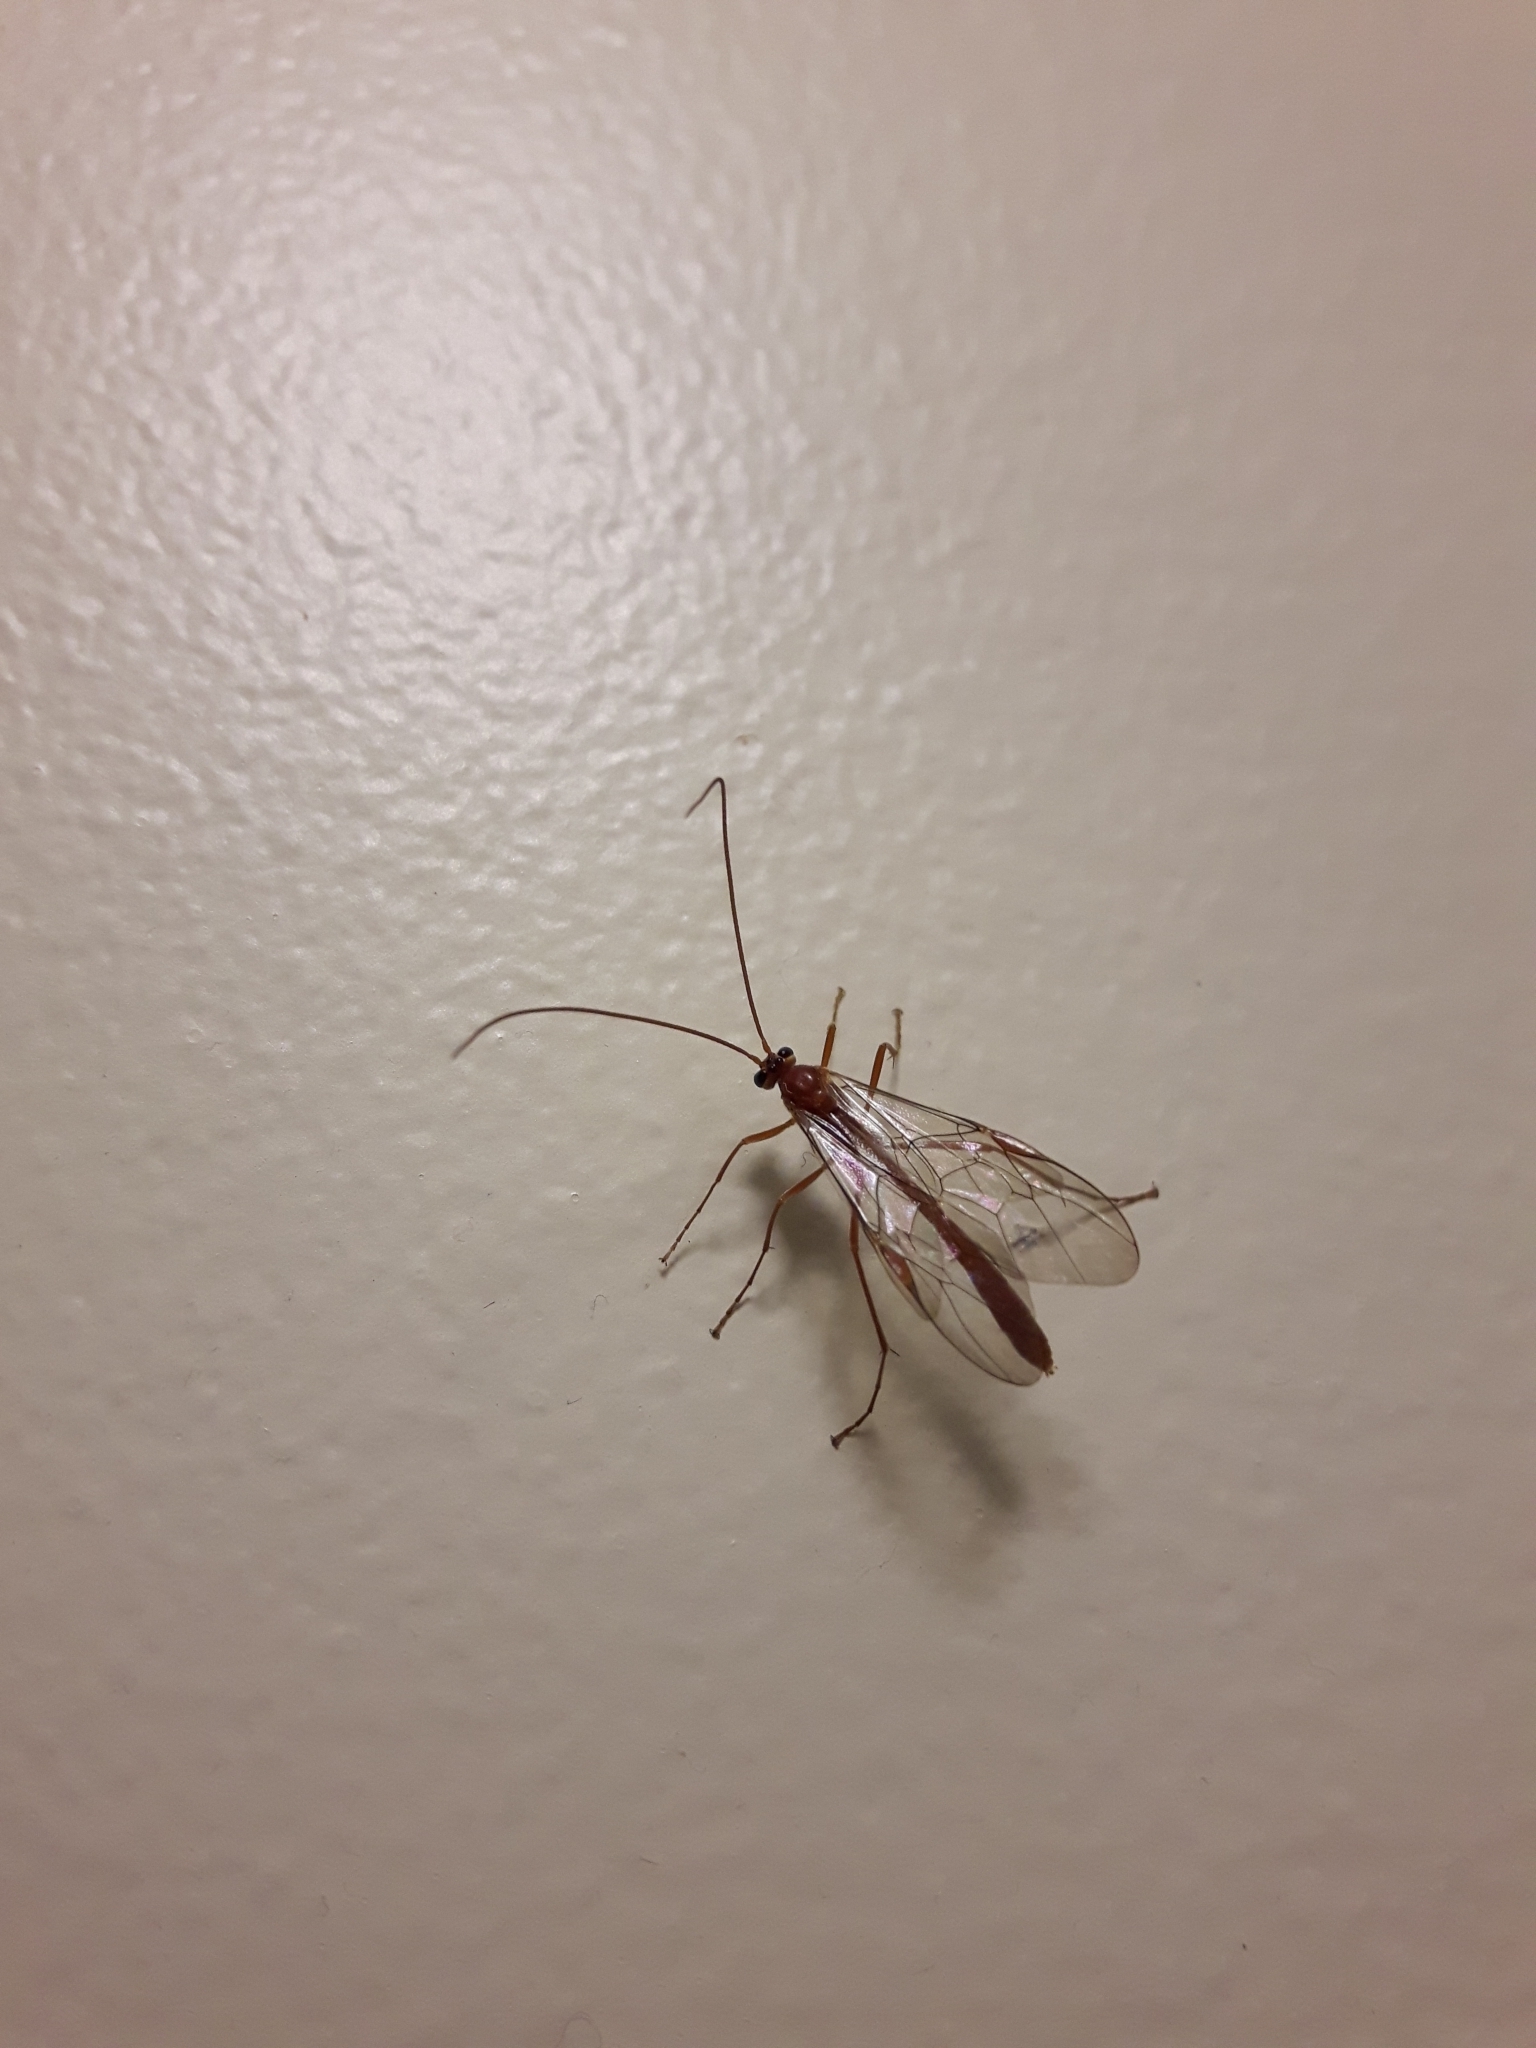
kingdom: Animalia
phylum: Arthropoda
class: Insecta
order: Hymenoptera
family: Ichneumonidae
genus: Ophion
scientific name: Ophion
